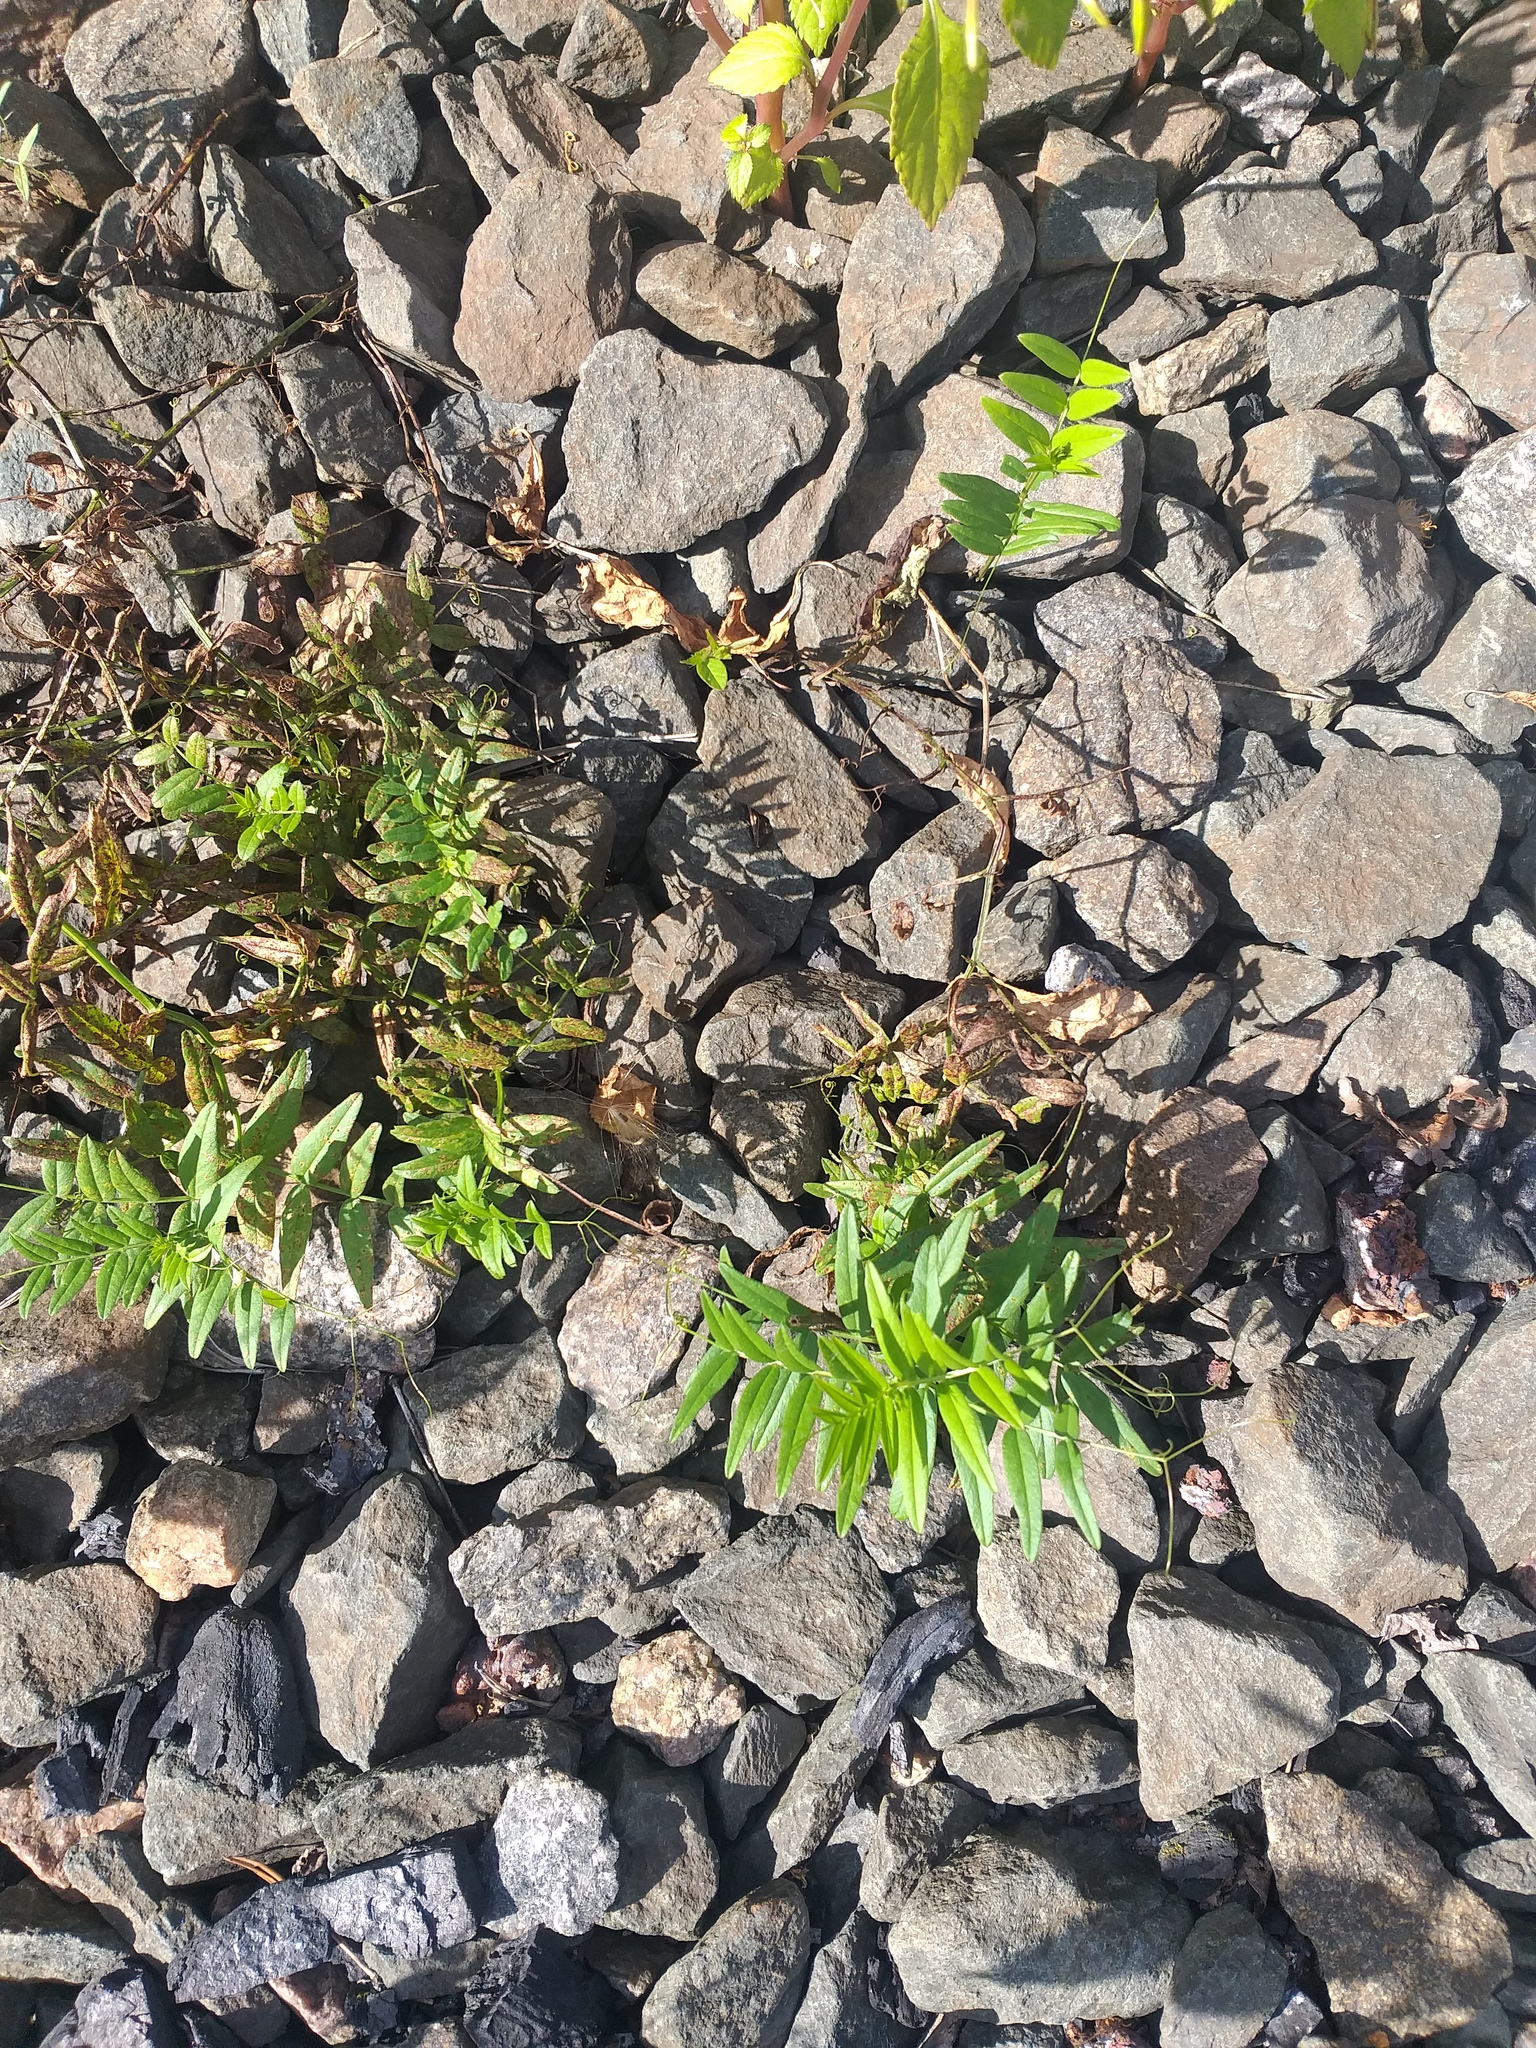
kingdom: Plantae
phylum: Tracheophyta
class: Magnoliopsida
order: Fabales
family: Fabaceae
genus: Vicia
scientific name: Vicia sepium
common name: Bush vetch
